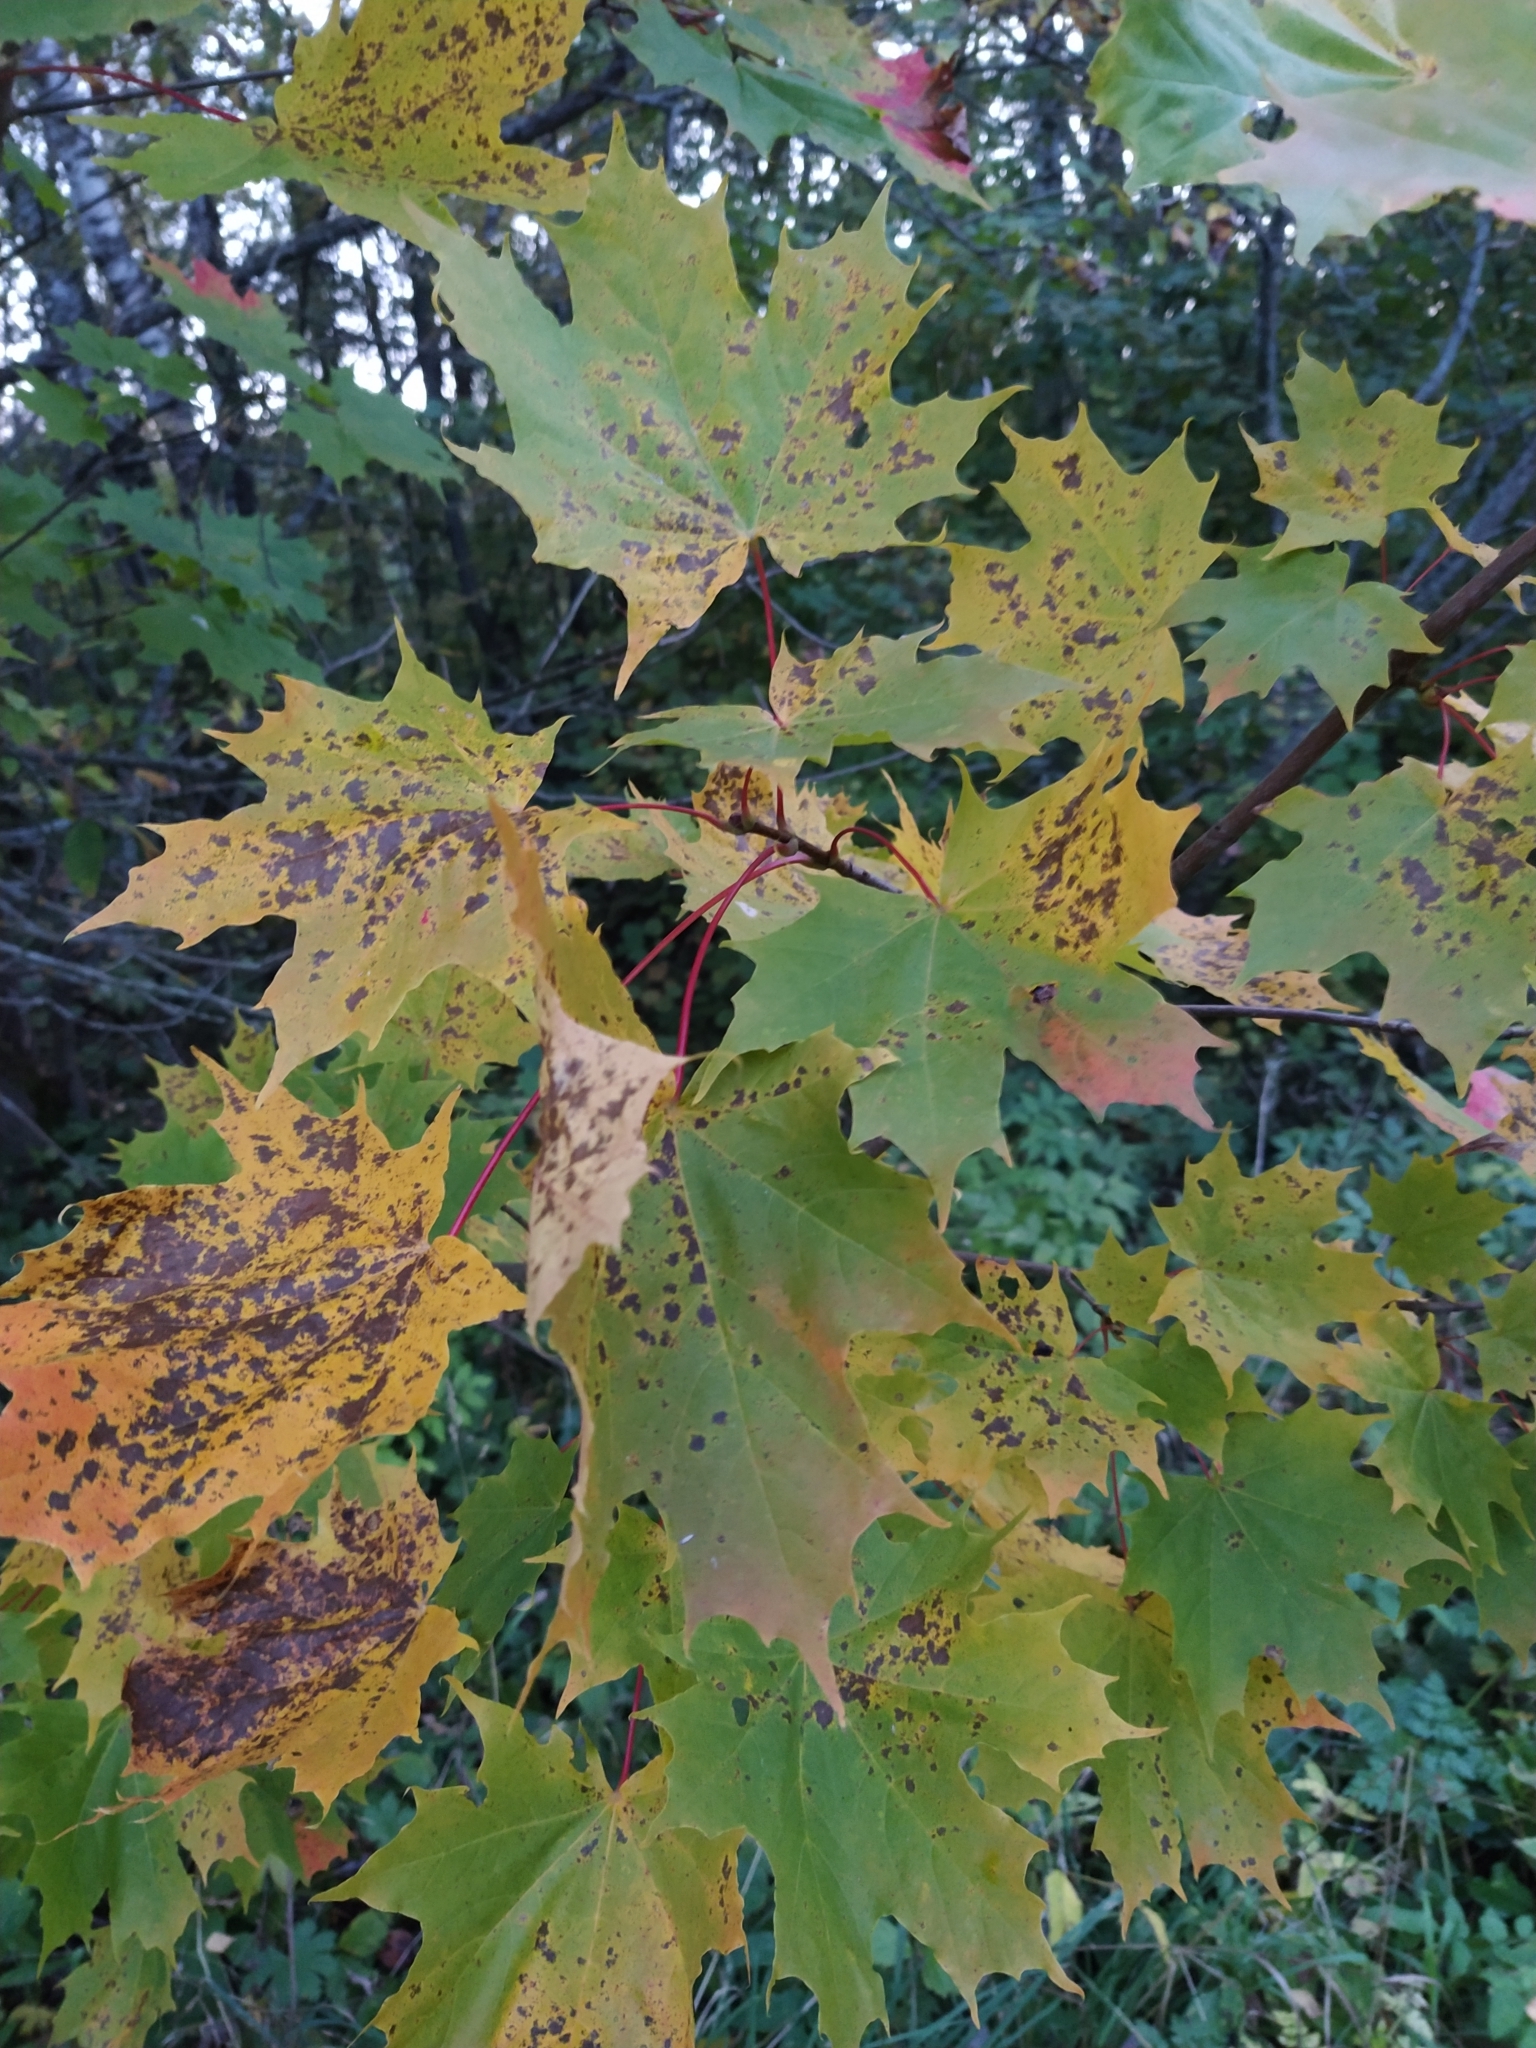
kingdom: Plantae
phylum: Tracheophyta
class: Magnoliopsida
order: Sapindales
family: Sapindaceae
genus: Acer
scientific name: Acer platanoides
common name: Norway maple
